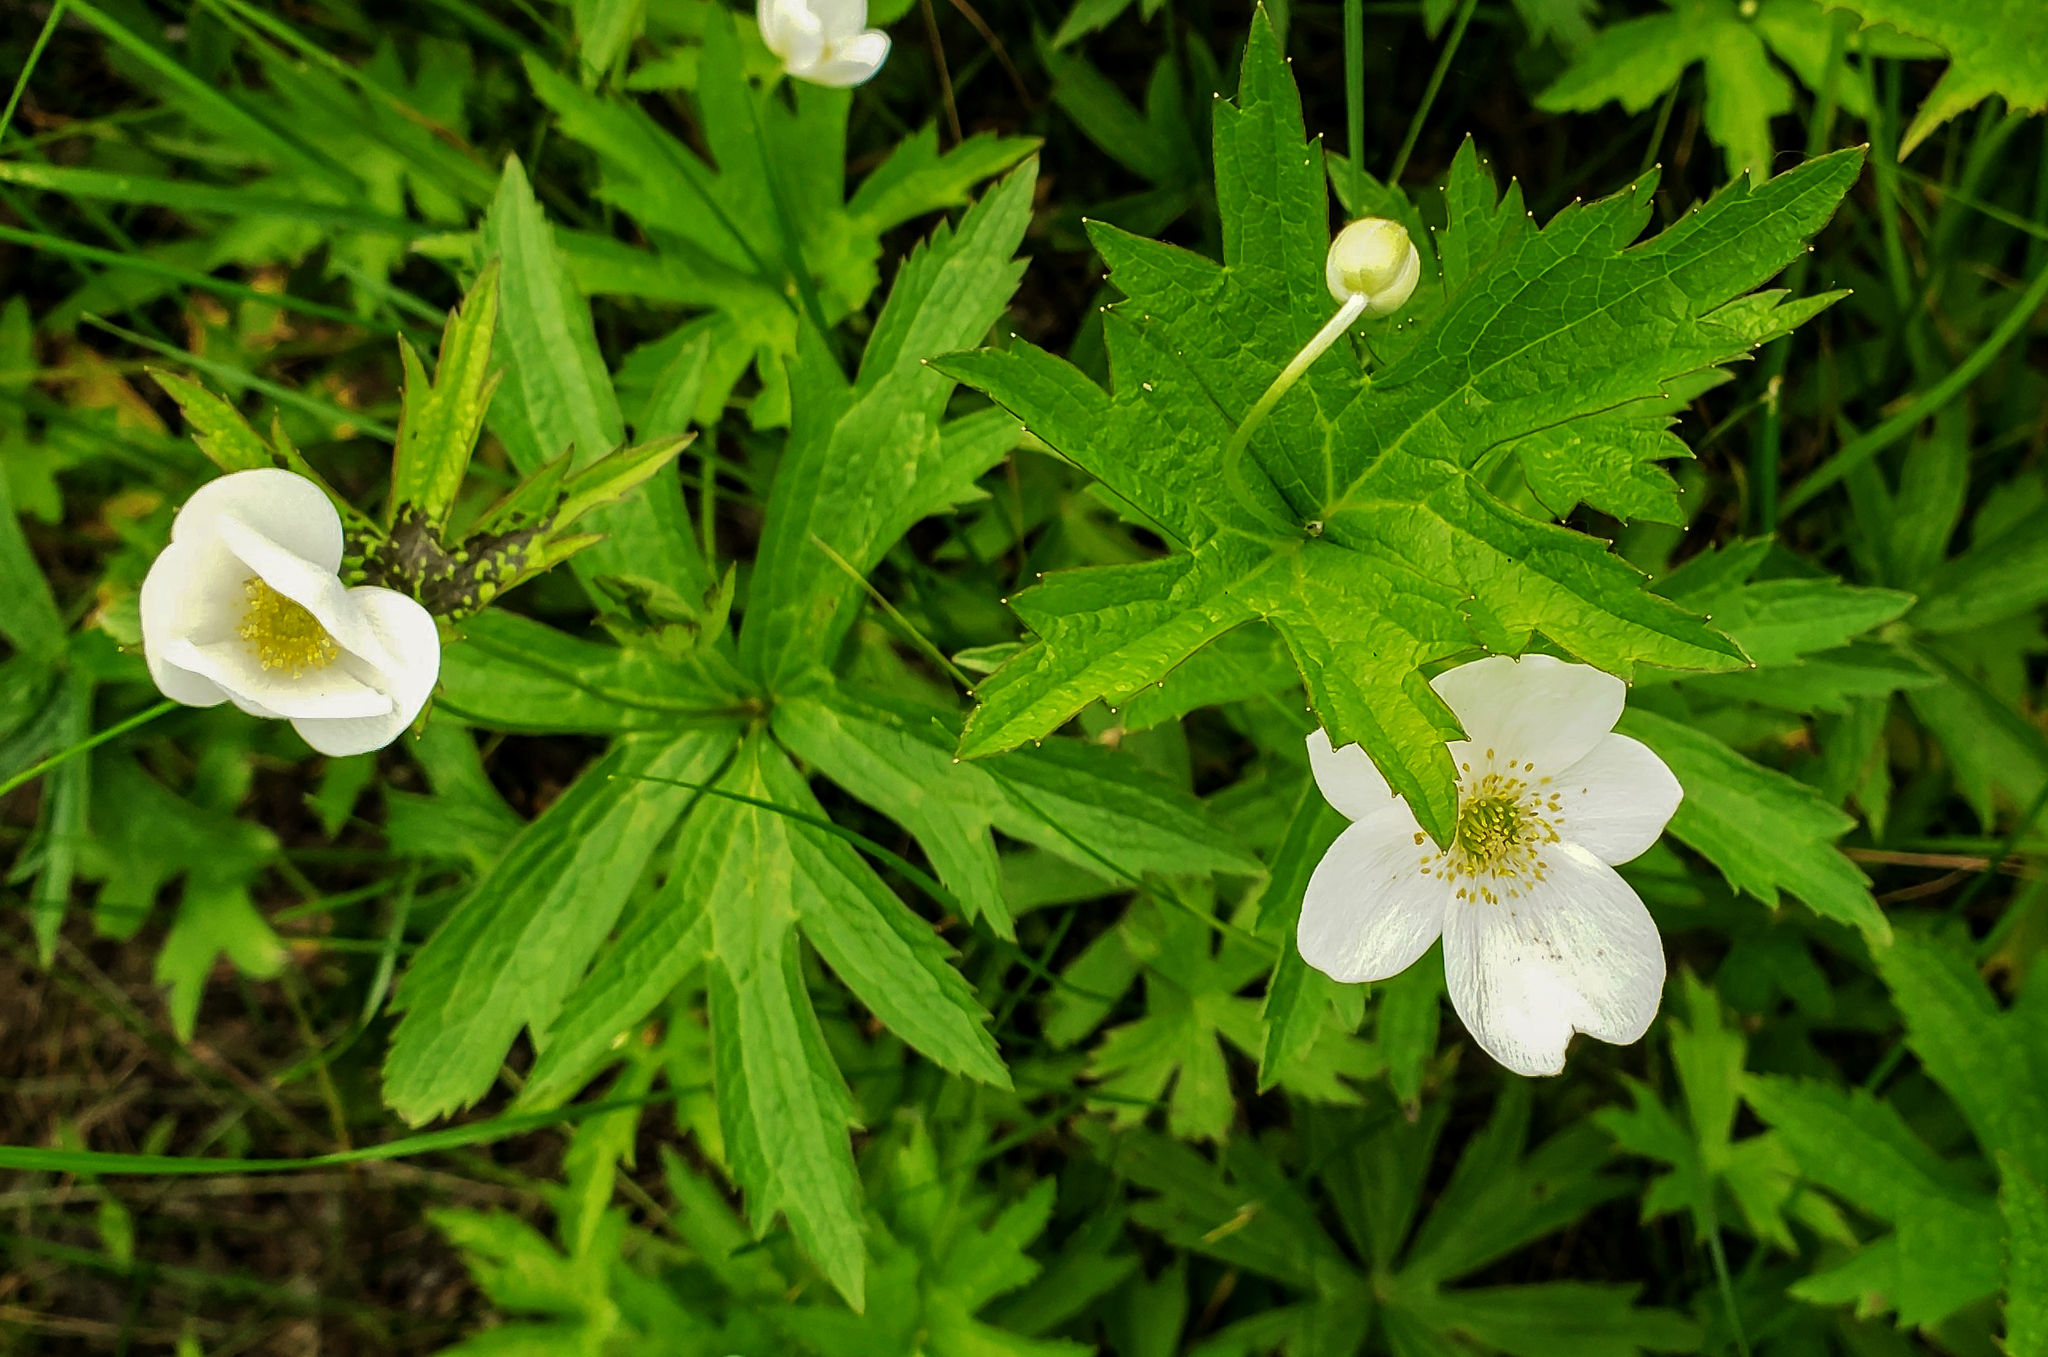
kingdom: Plantae
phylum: Tracheophyta
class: Magnoliopsida
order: Ranunculales
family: Ranunculaceae
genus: Anemonastrum
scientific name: Anemonastrum canadense
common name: Canada anemone
